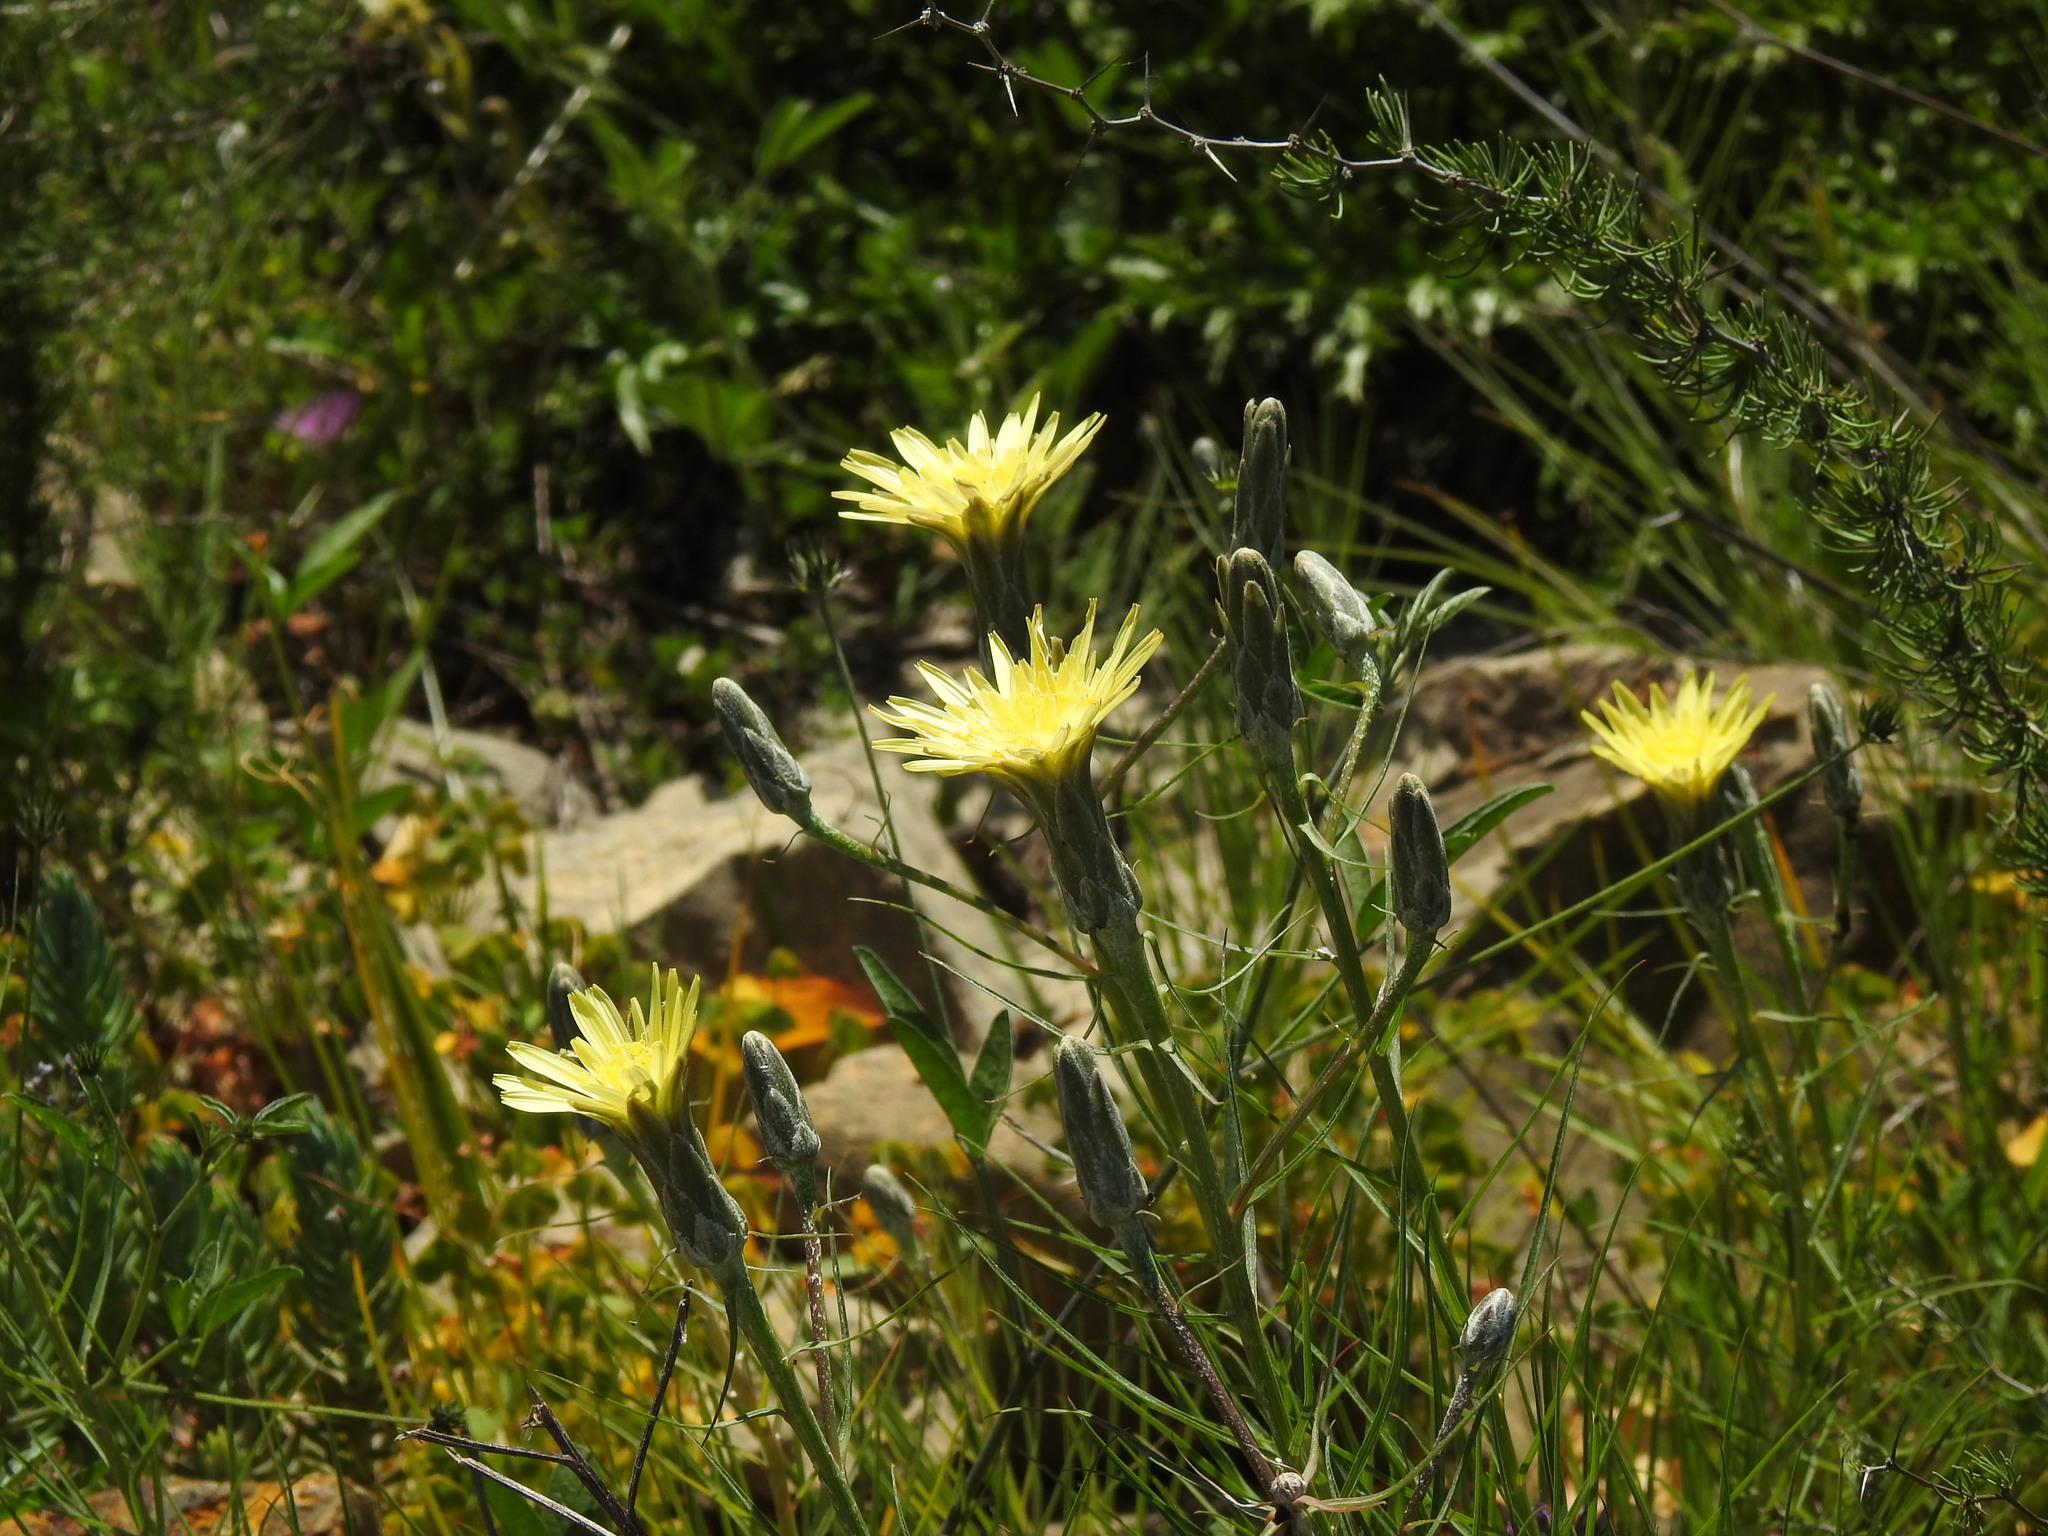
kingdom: Plantae
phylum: Tracheophyta
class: Magnoliopsida
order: Asterales
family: Asteraceae
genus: Scorzonera
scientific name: Scorzonera angustifolia
